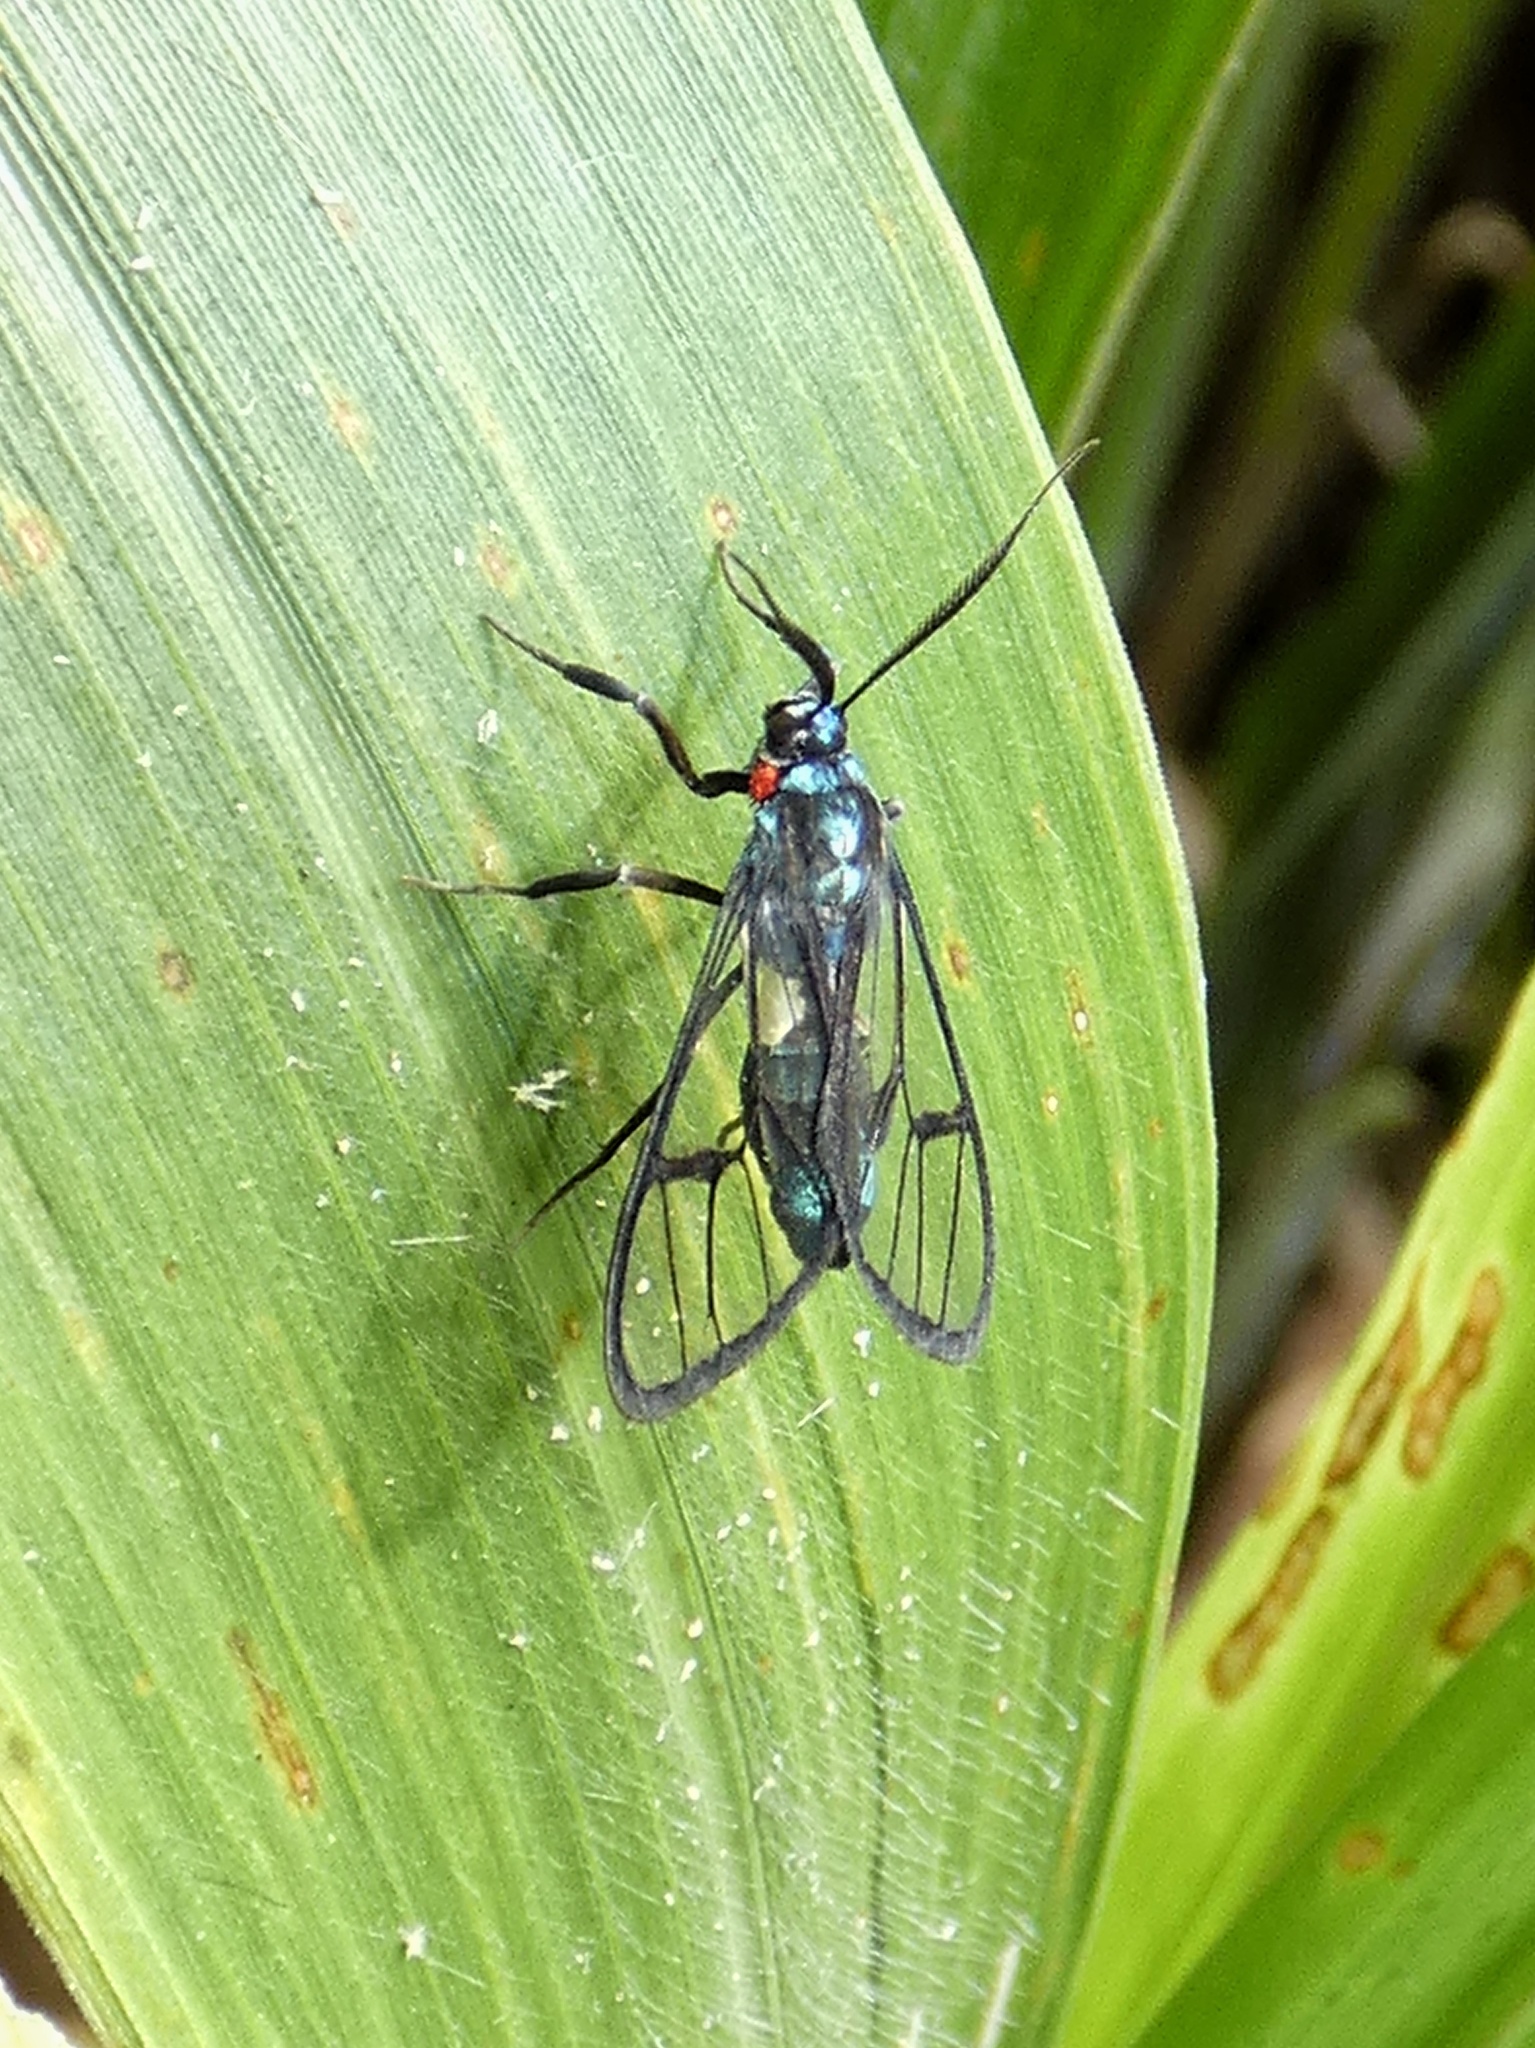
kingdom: Animalia
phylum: Arthropoda
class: Insecta
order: Lepidoptera
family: Erebidae
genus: Syntrichura
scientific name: Syntrichura virens
